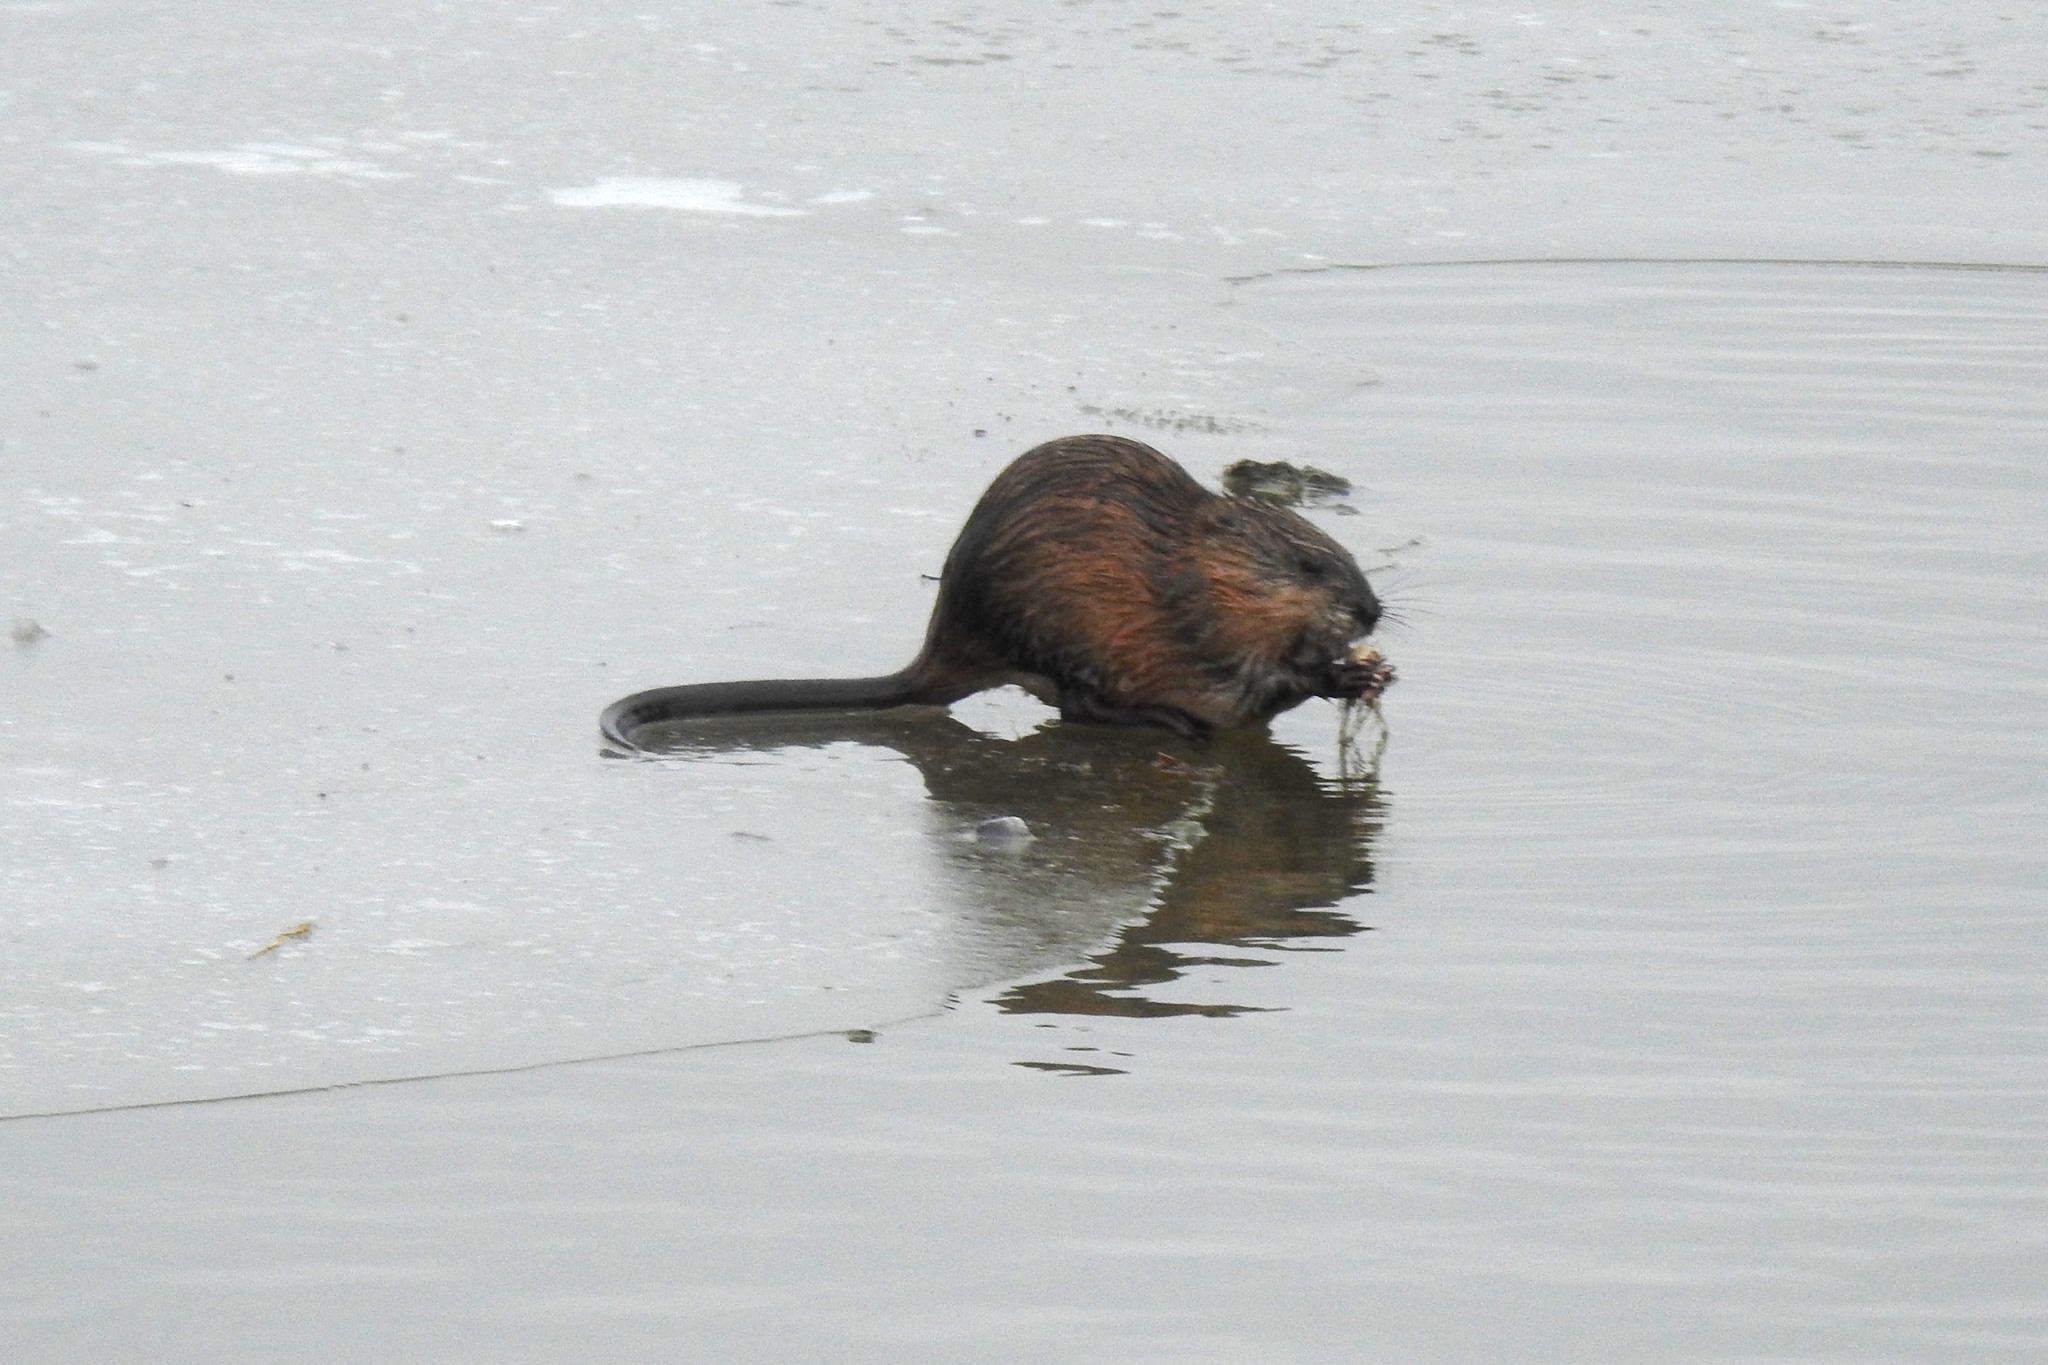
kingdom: Animalia
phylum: Chordata
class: Mammalia
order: Rodentia
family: Cricetidae
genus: Ondatra
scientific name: Ondatra zibethicus
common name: Muskrat
